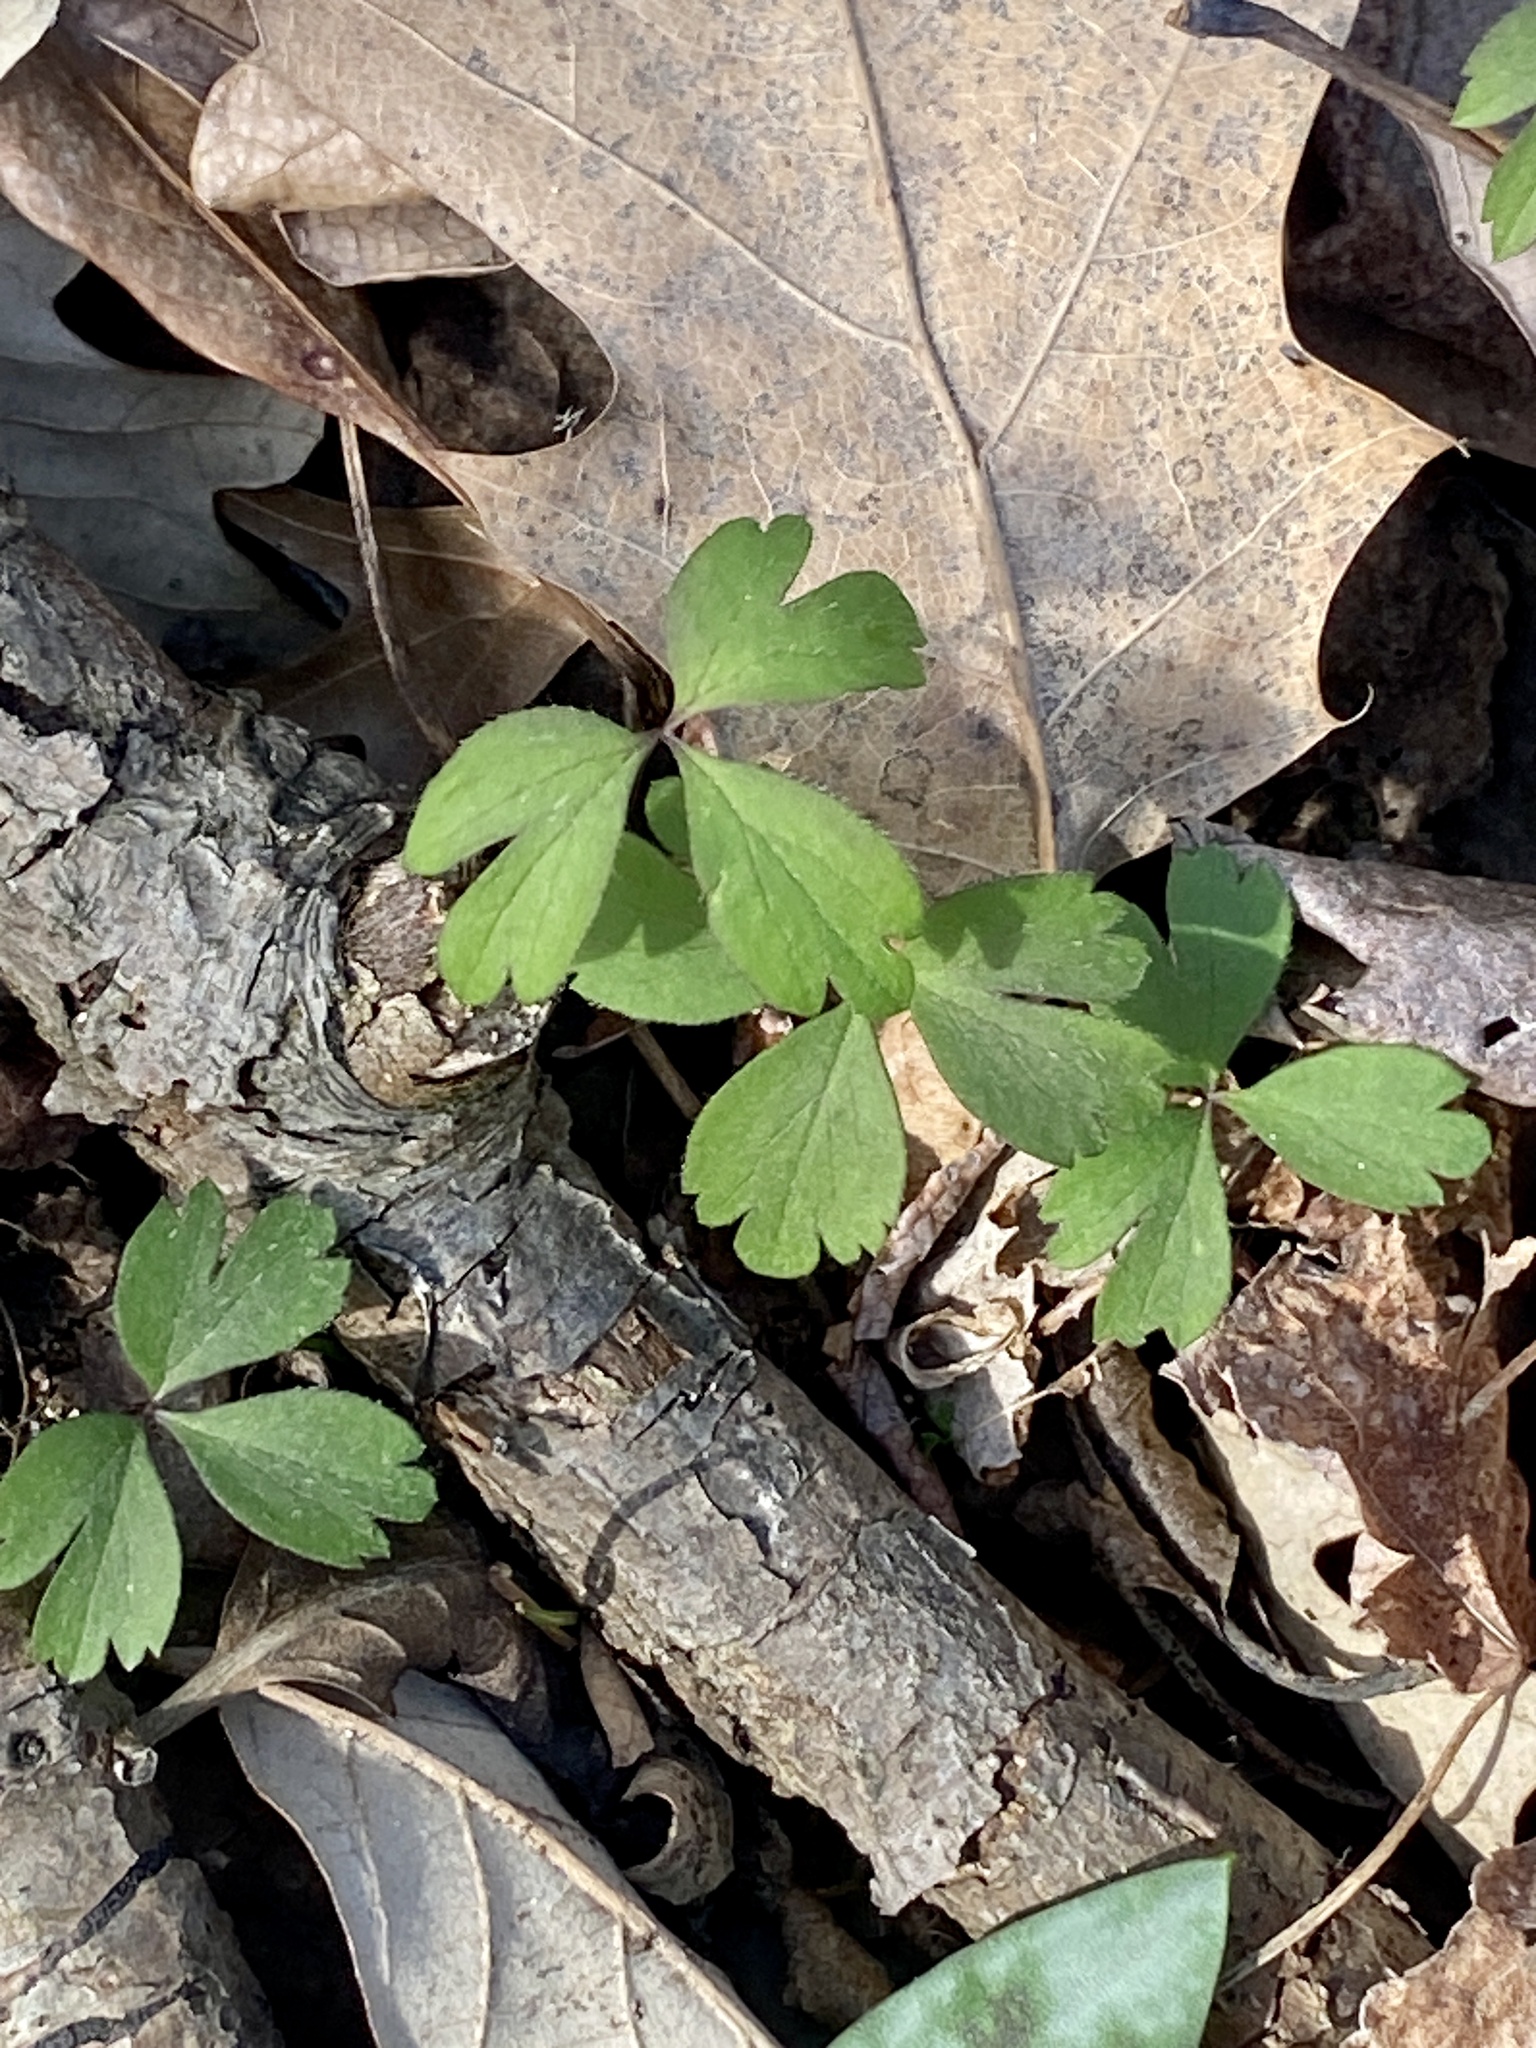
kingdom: Plantae
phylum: Tracheophyta
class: Magnoliopsida
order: Ranunculales
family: Ranunculaceae
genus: Anemone
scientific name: Anemone quinquefolia
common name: Wood anemone
